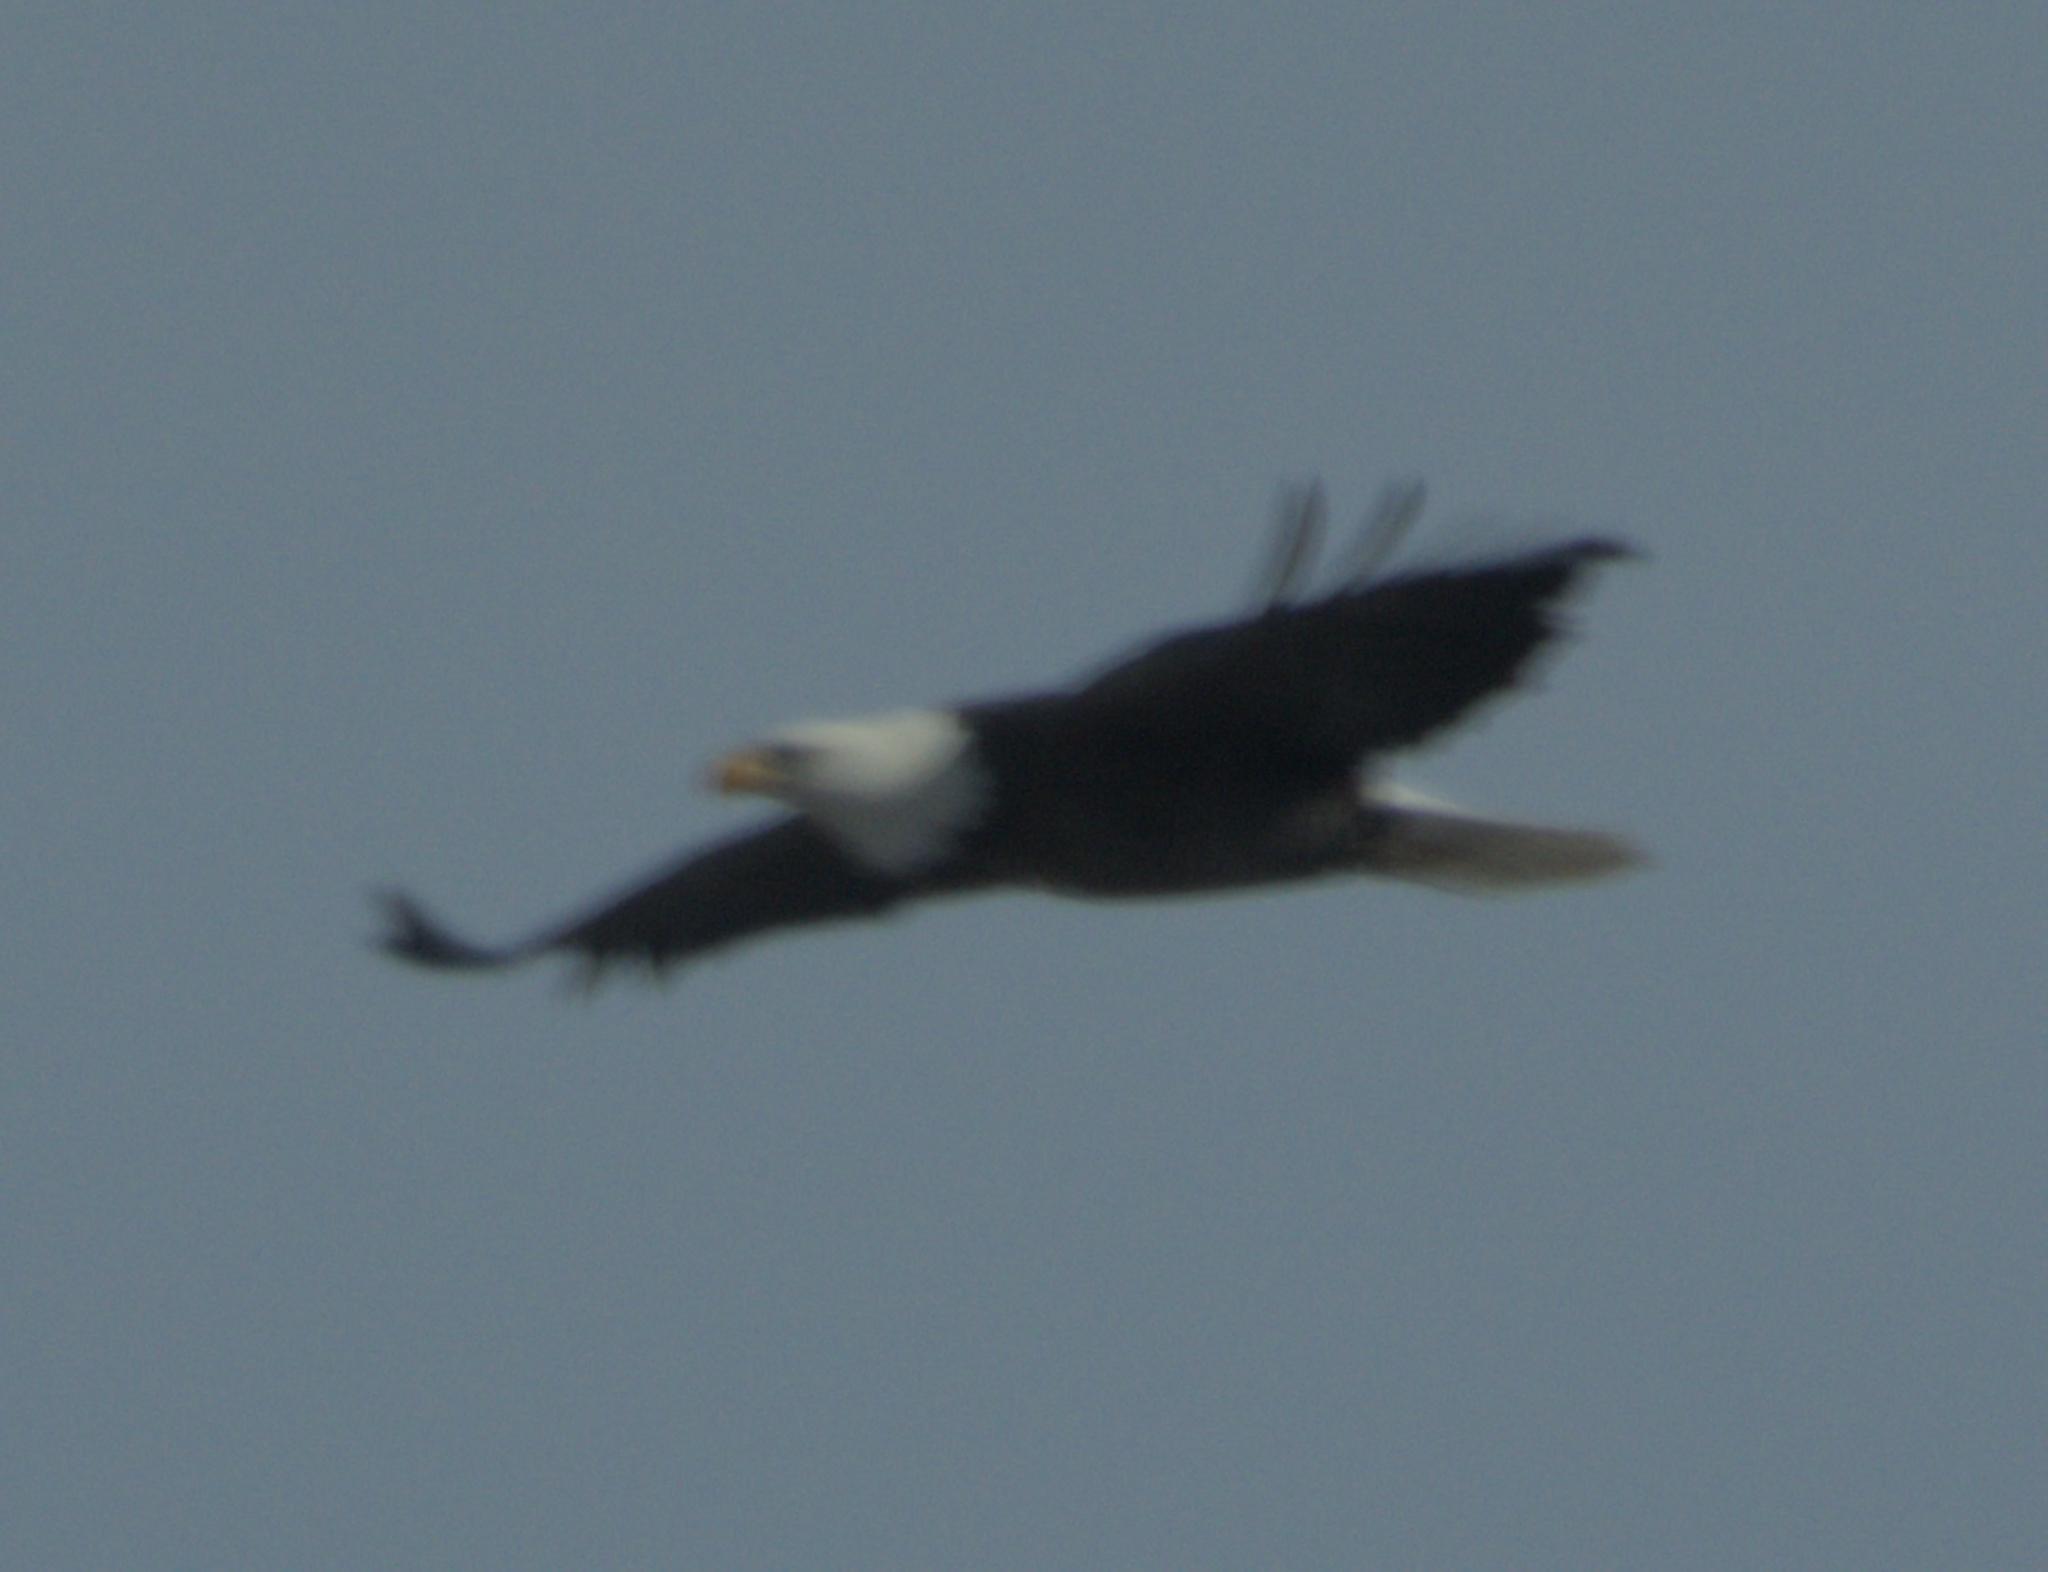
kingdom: Animalia
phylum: Chordata
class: Aves
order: Accipitriformes
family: Accipitridae
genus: Haliaeetus
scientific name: Haliaeetus leucocephalus
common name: Bald eagle
